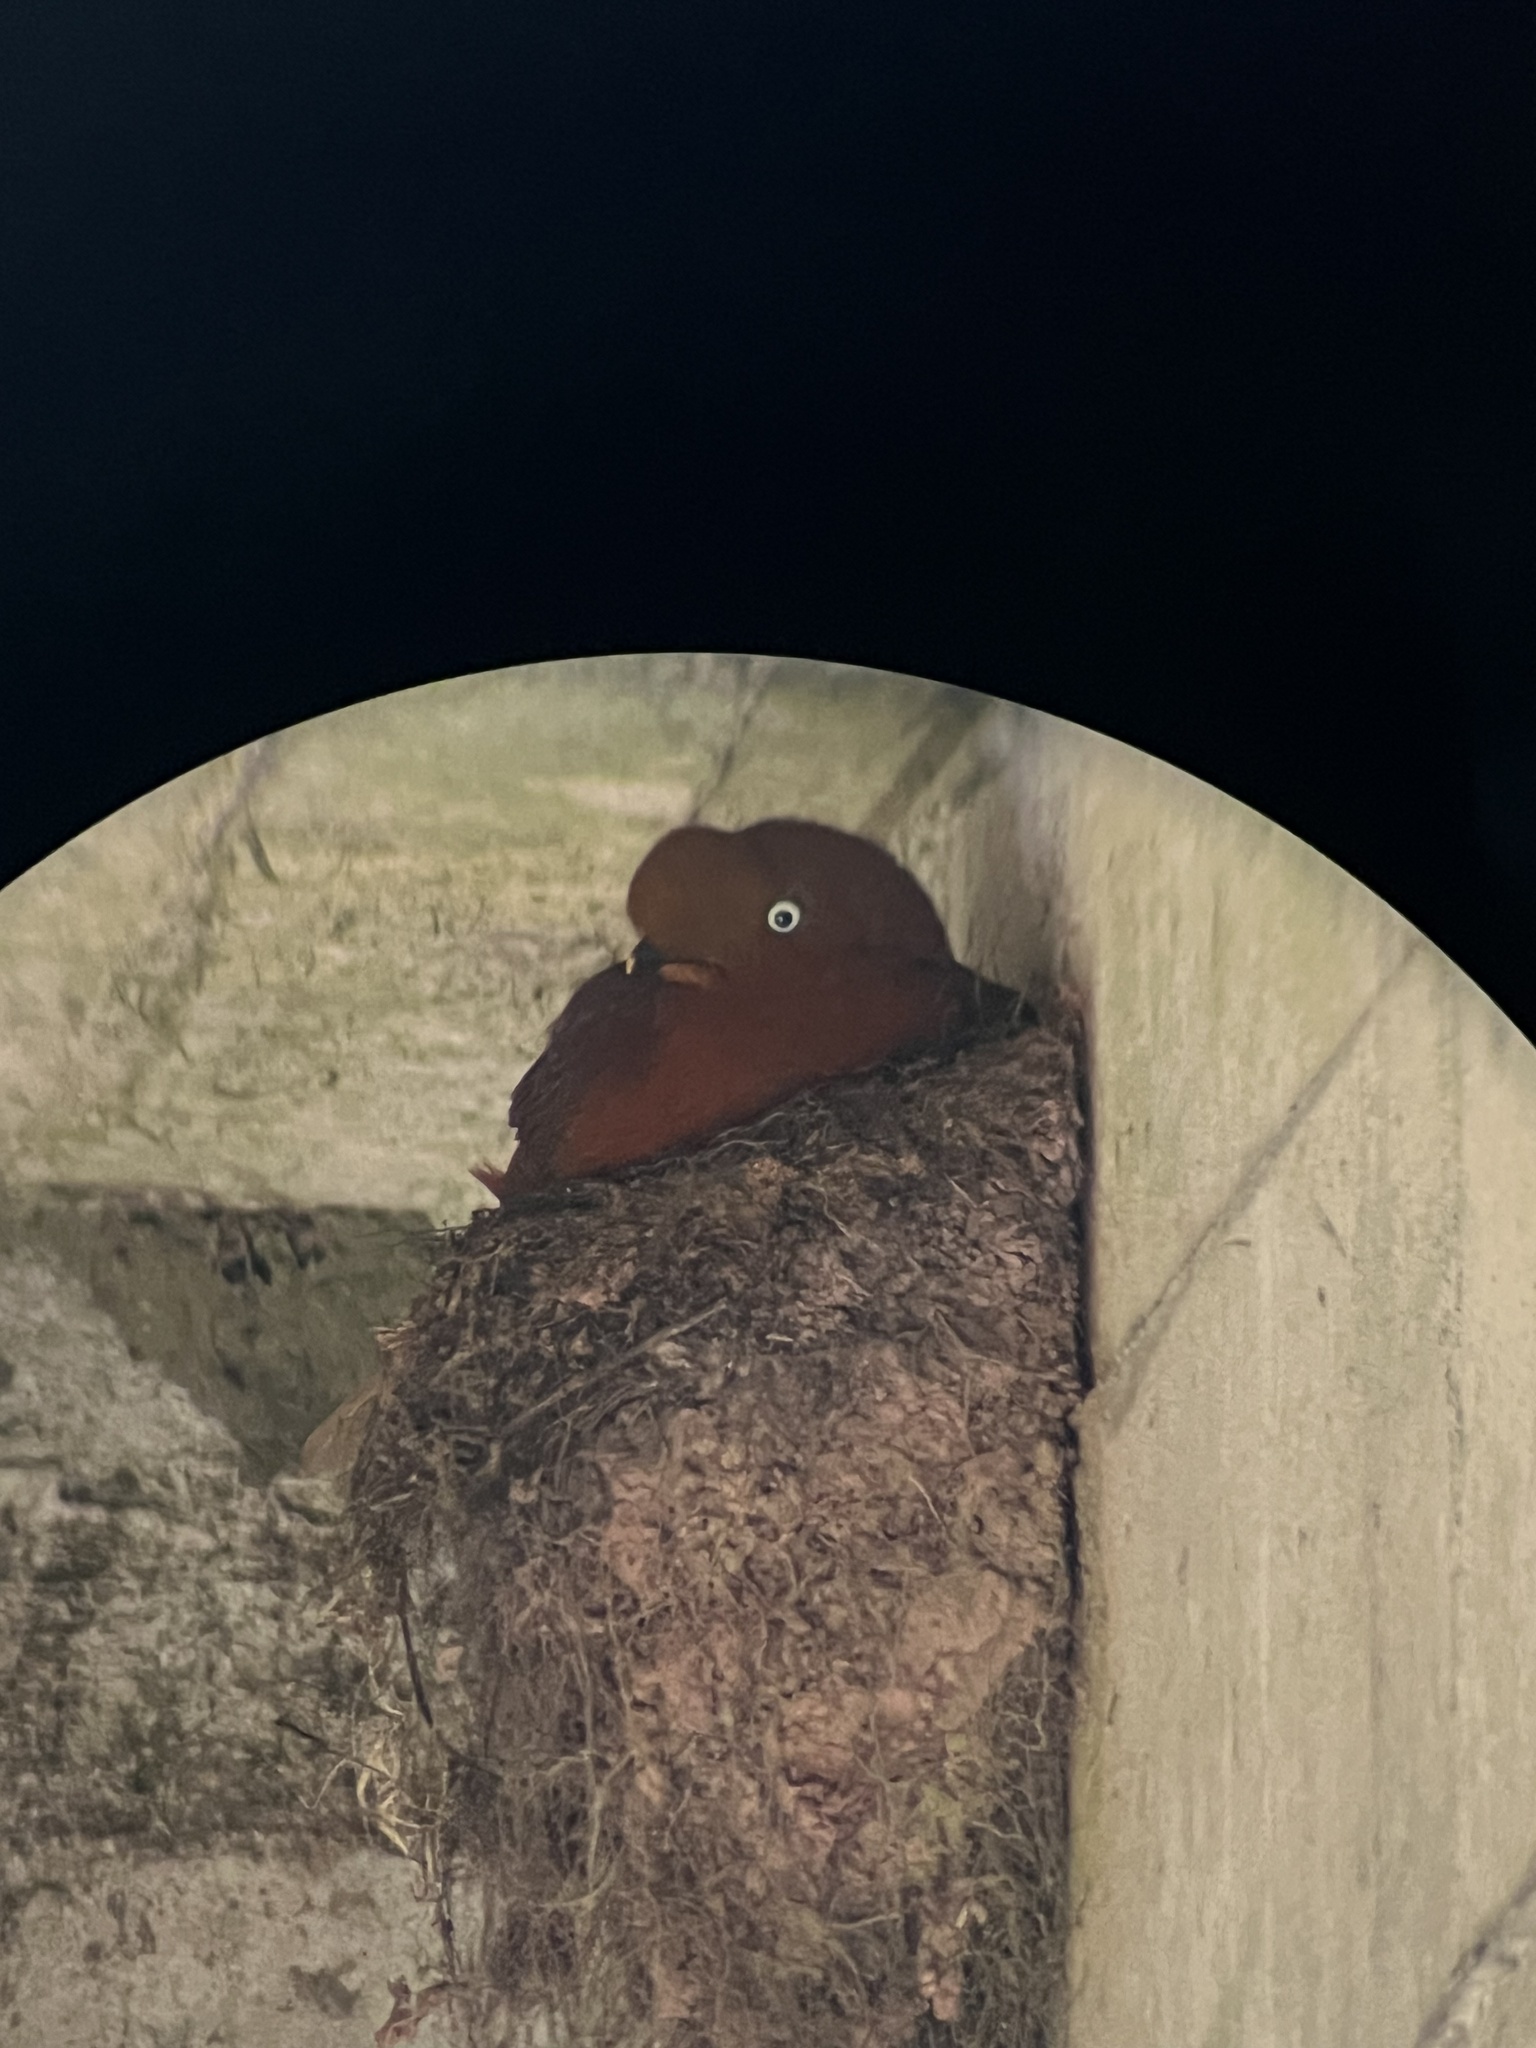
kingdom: Animalia
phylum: Chordata
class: Aves
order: Passeriformes
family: Cotingidae
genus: Rupicola
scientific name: Rupicola peruvianus
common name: Andean cock-of-the-rock
